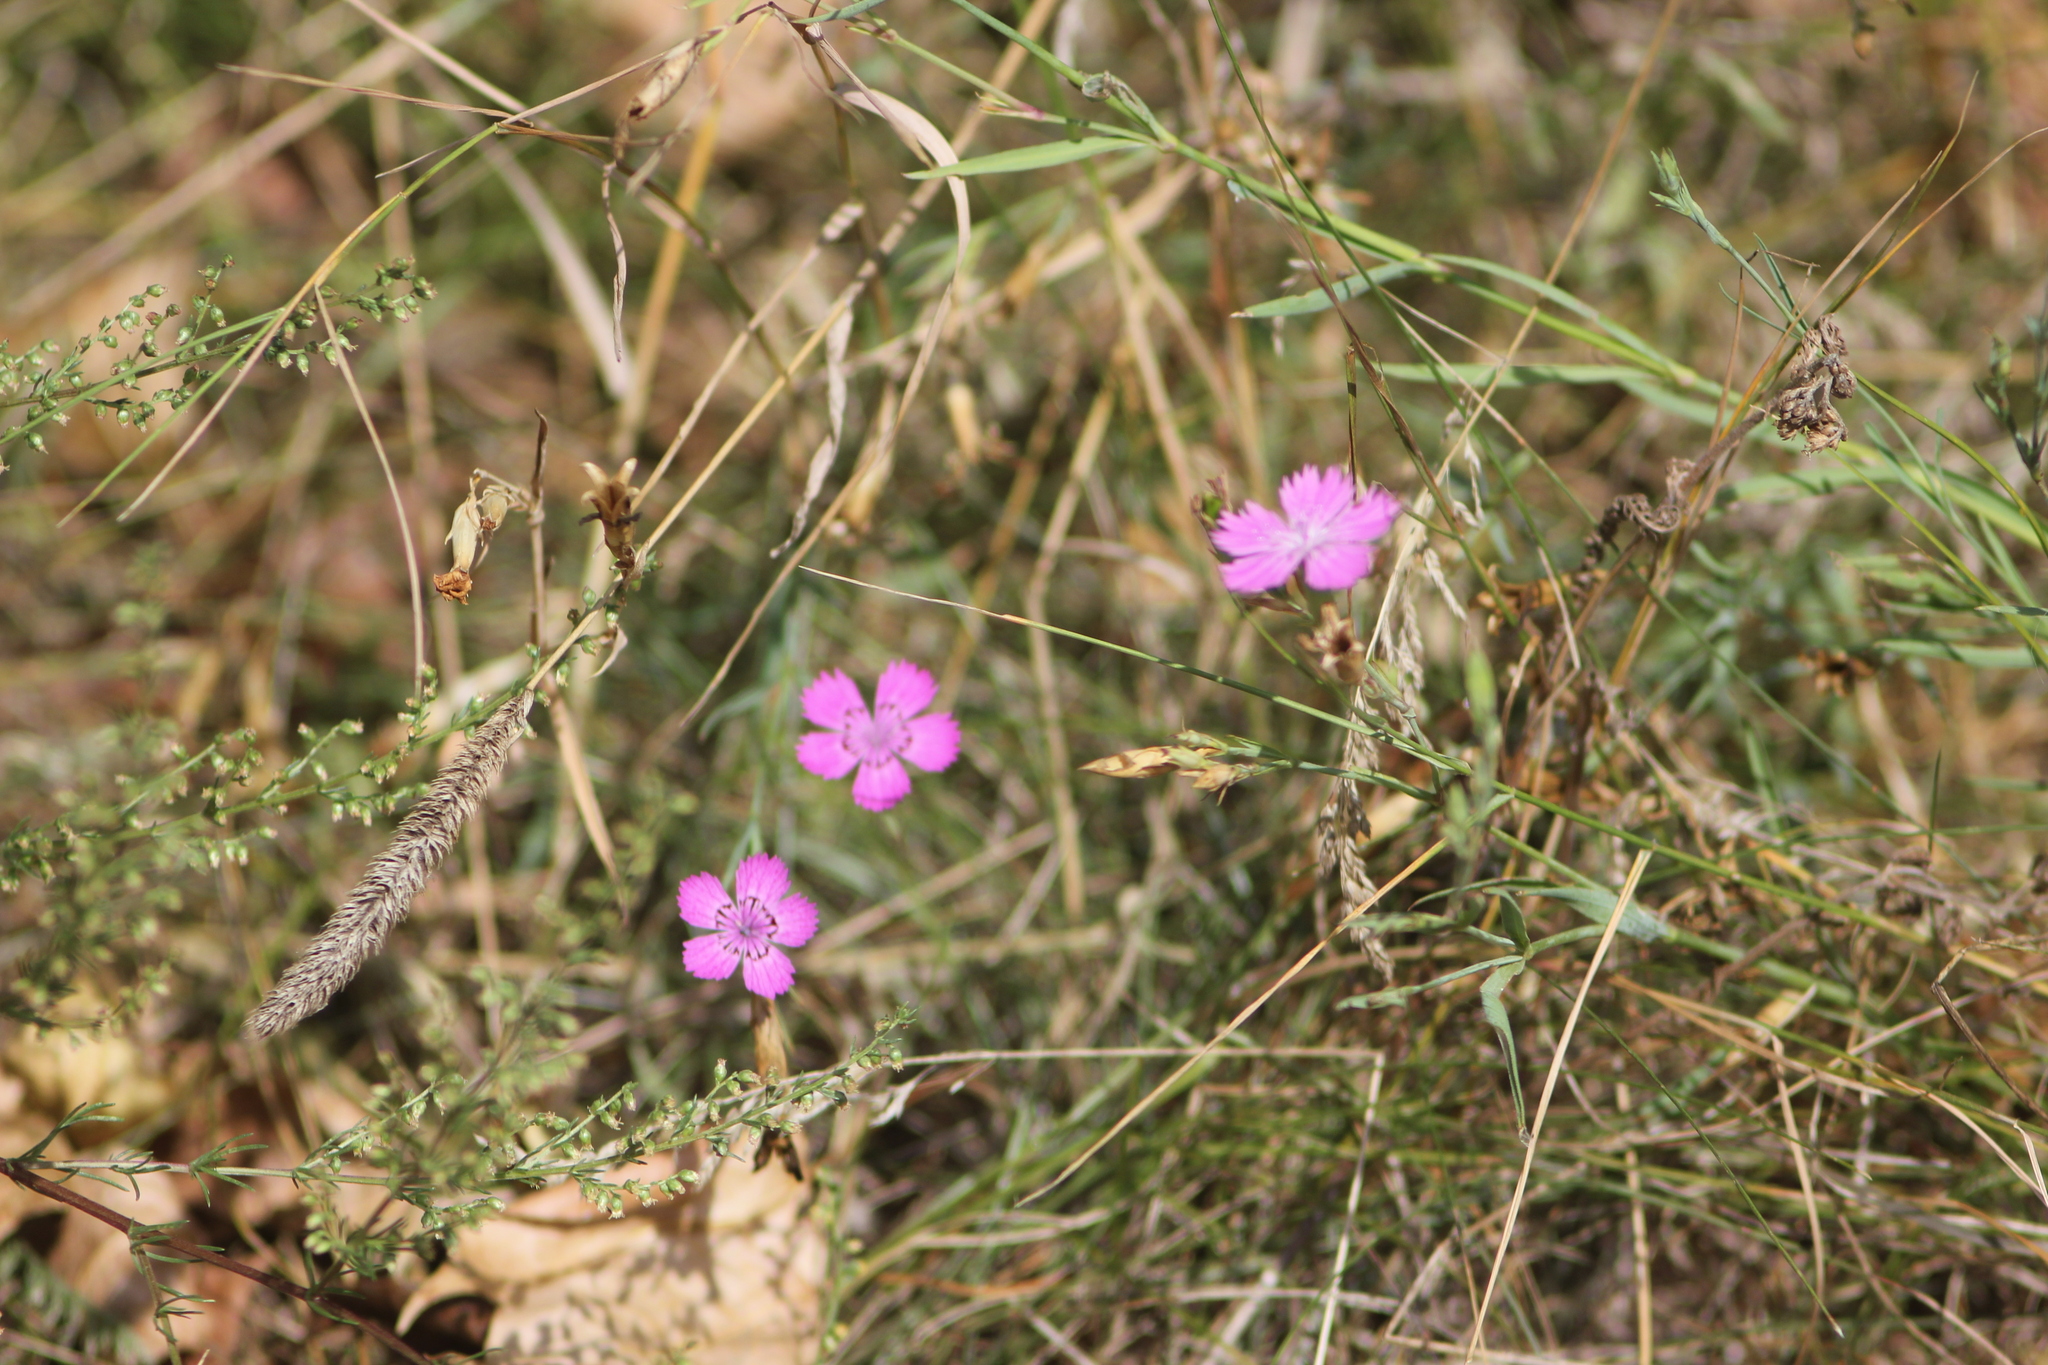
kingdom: Plantae
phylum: Tracheophyta
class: Magnoliopsida
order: Caryophyllales
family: Caryophyllaceae
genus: Dianthus
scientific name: Dianthus chinensis
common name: Rainbow pink
